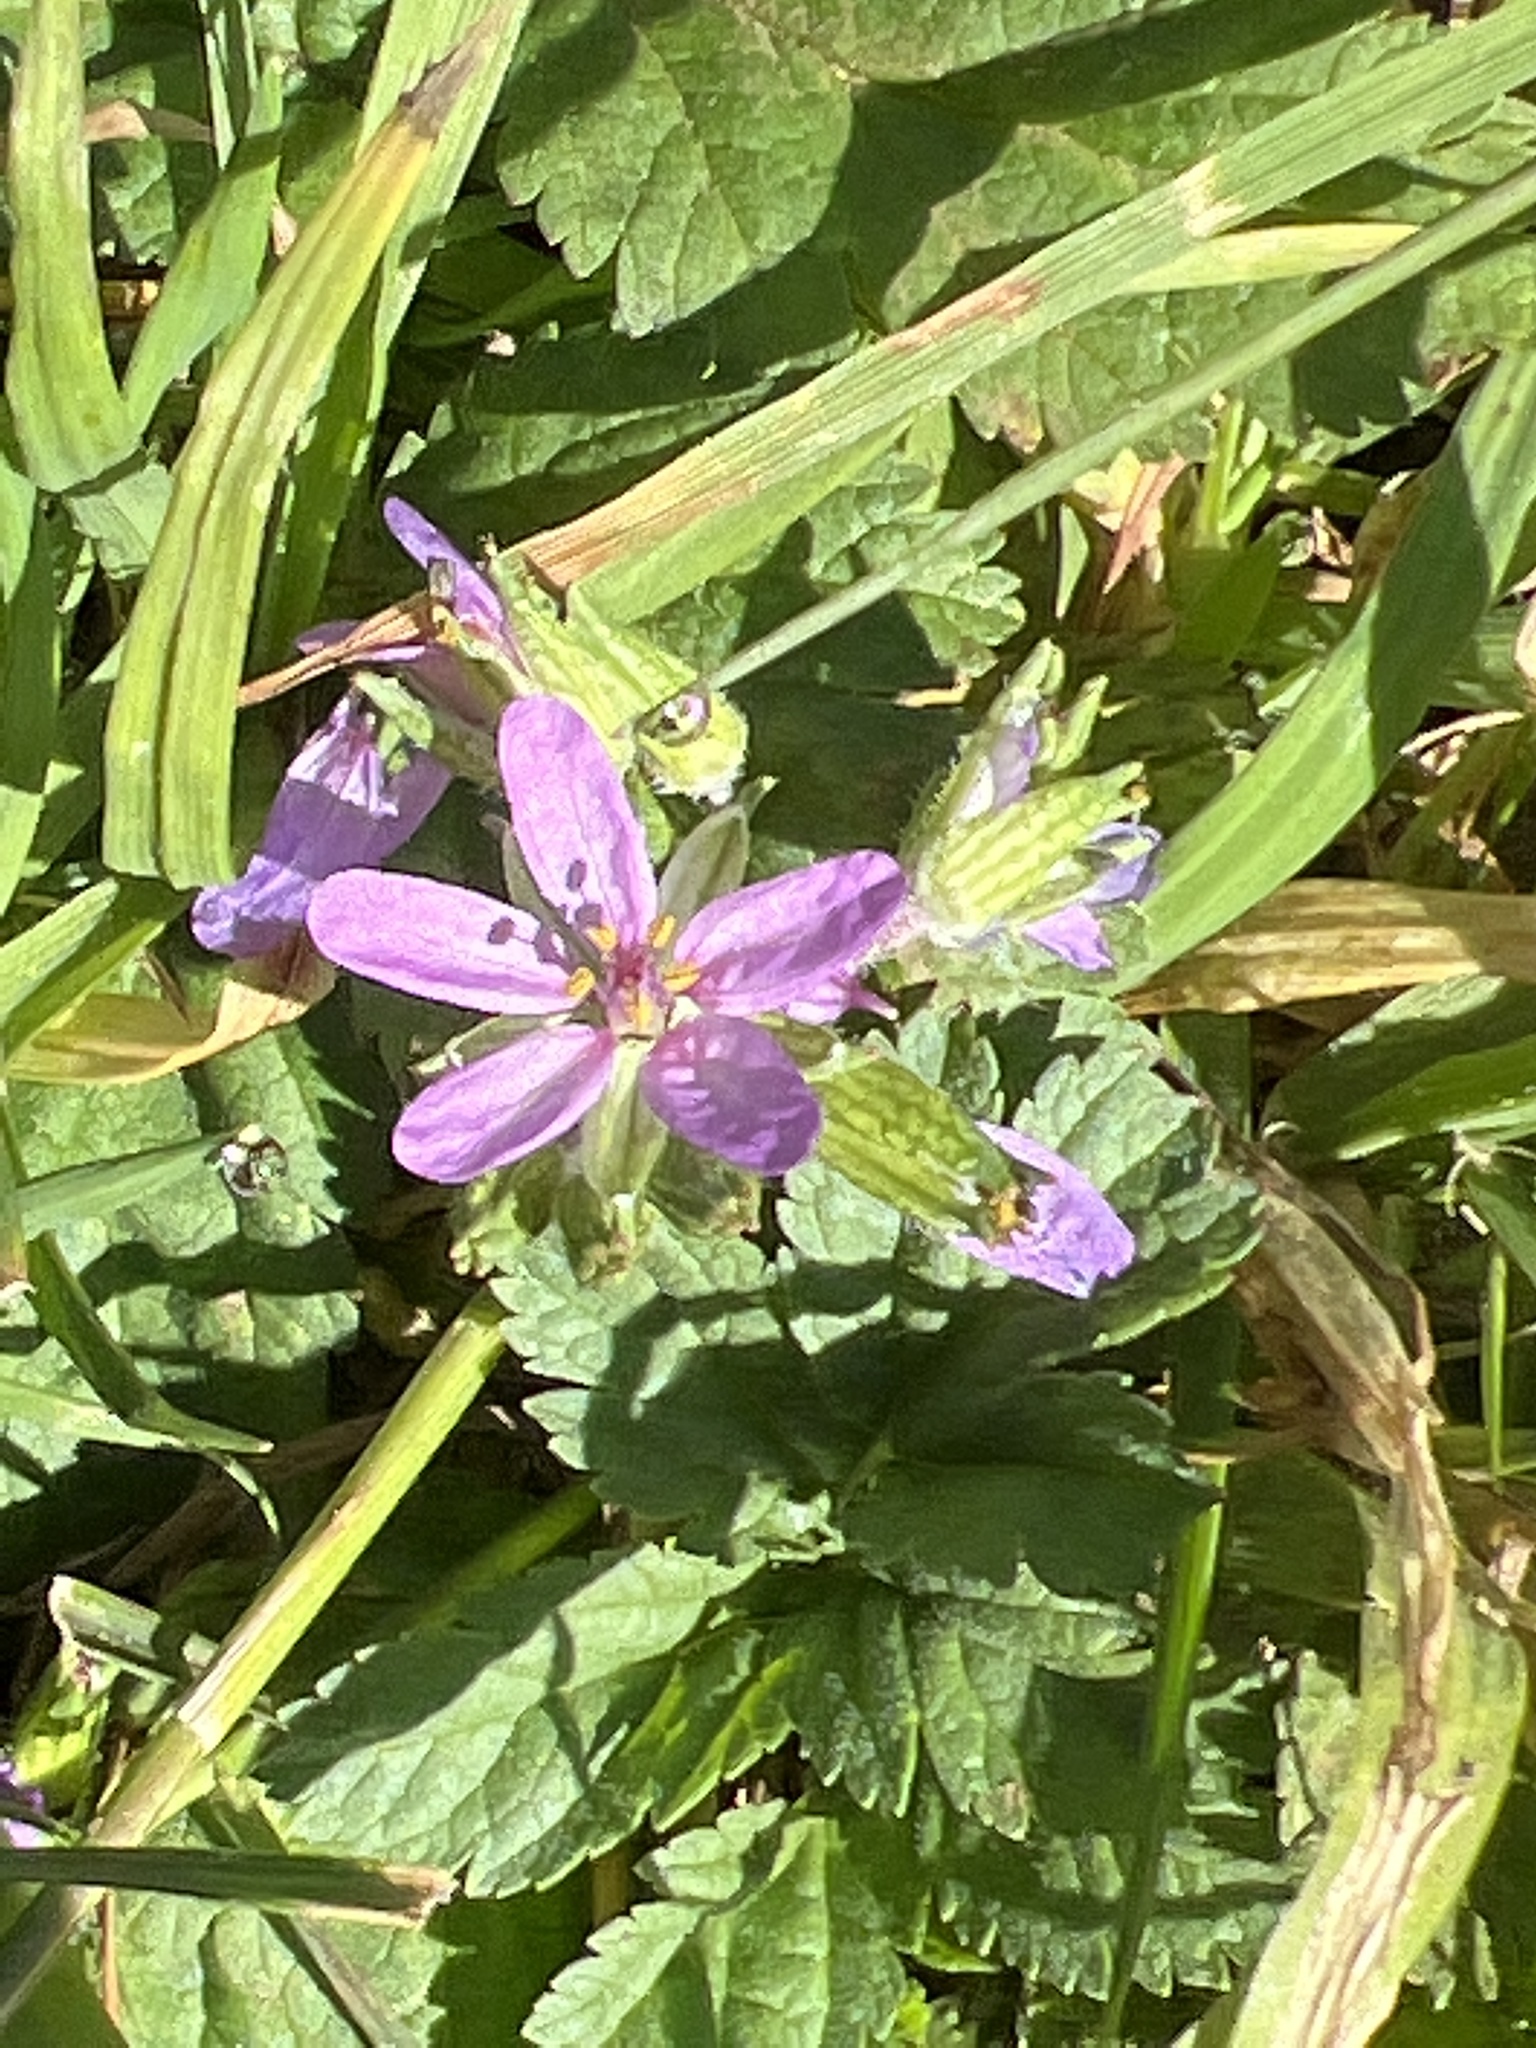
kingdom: Plantae
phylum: Tracheophyta
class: Magnoliopsida
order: Geraniales
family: Geraniaceae
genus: Erodium
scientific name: Erodium moschatum
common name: Musk stork's-bill
